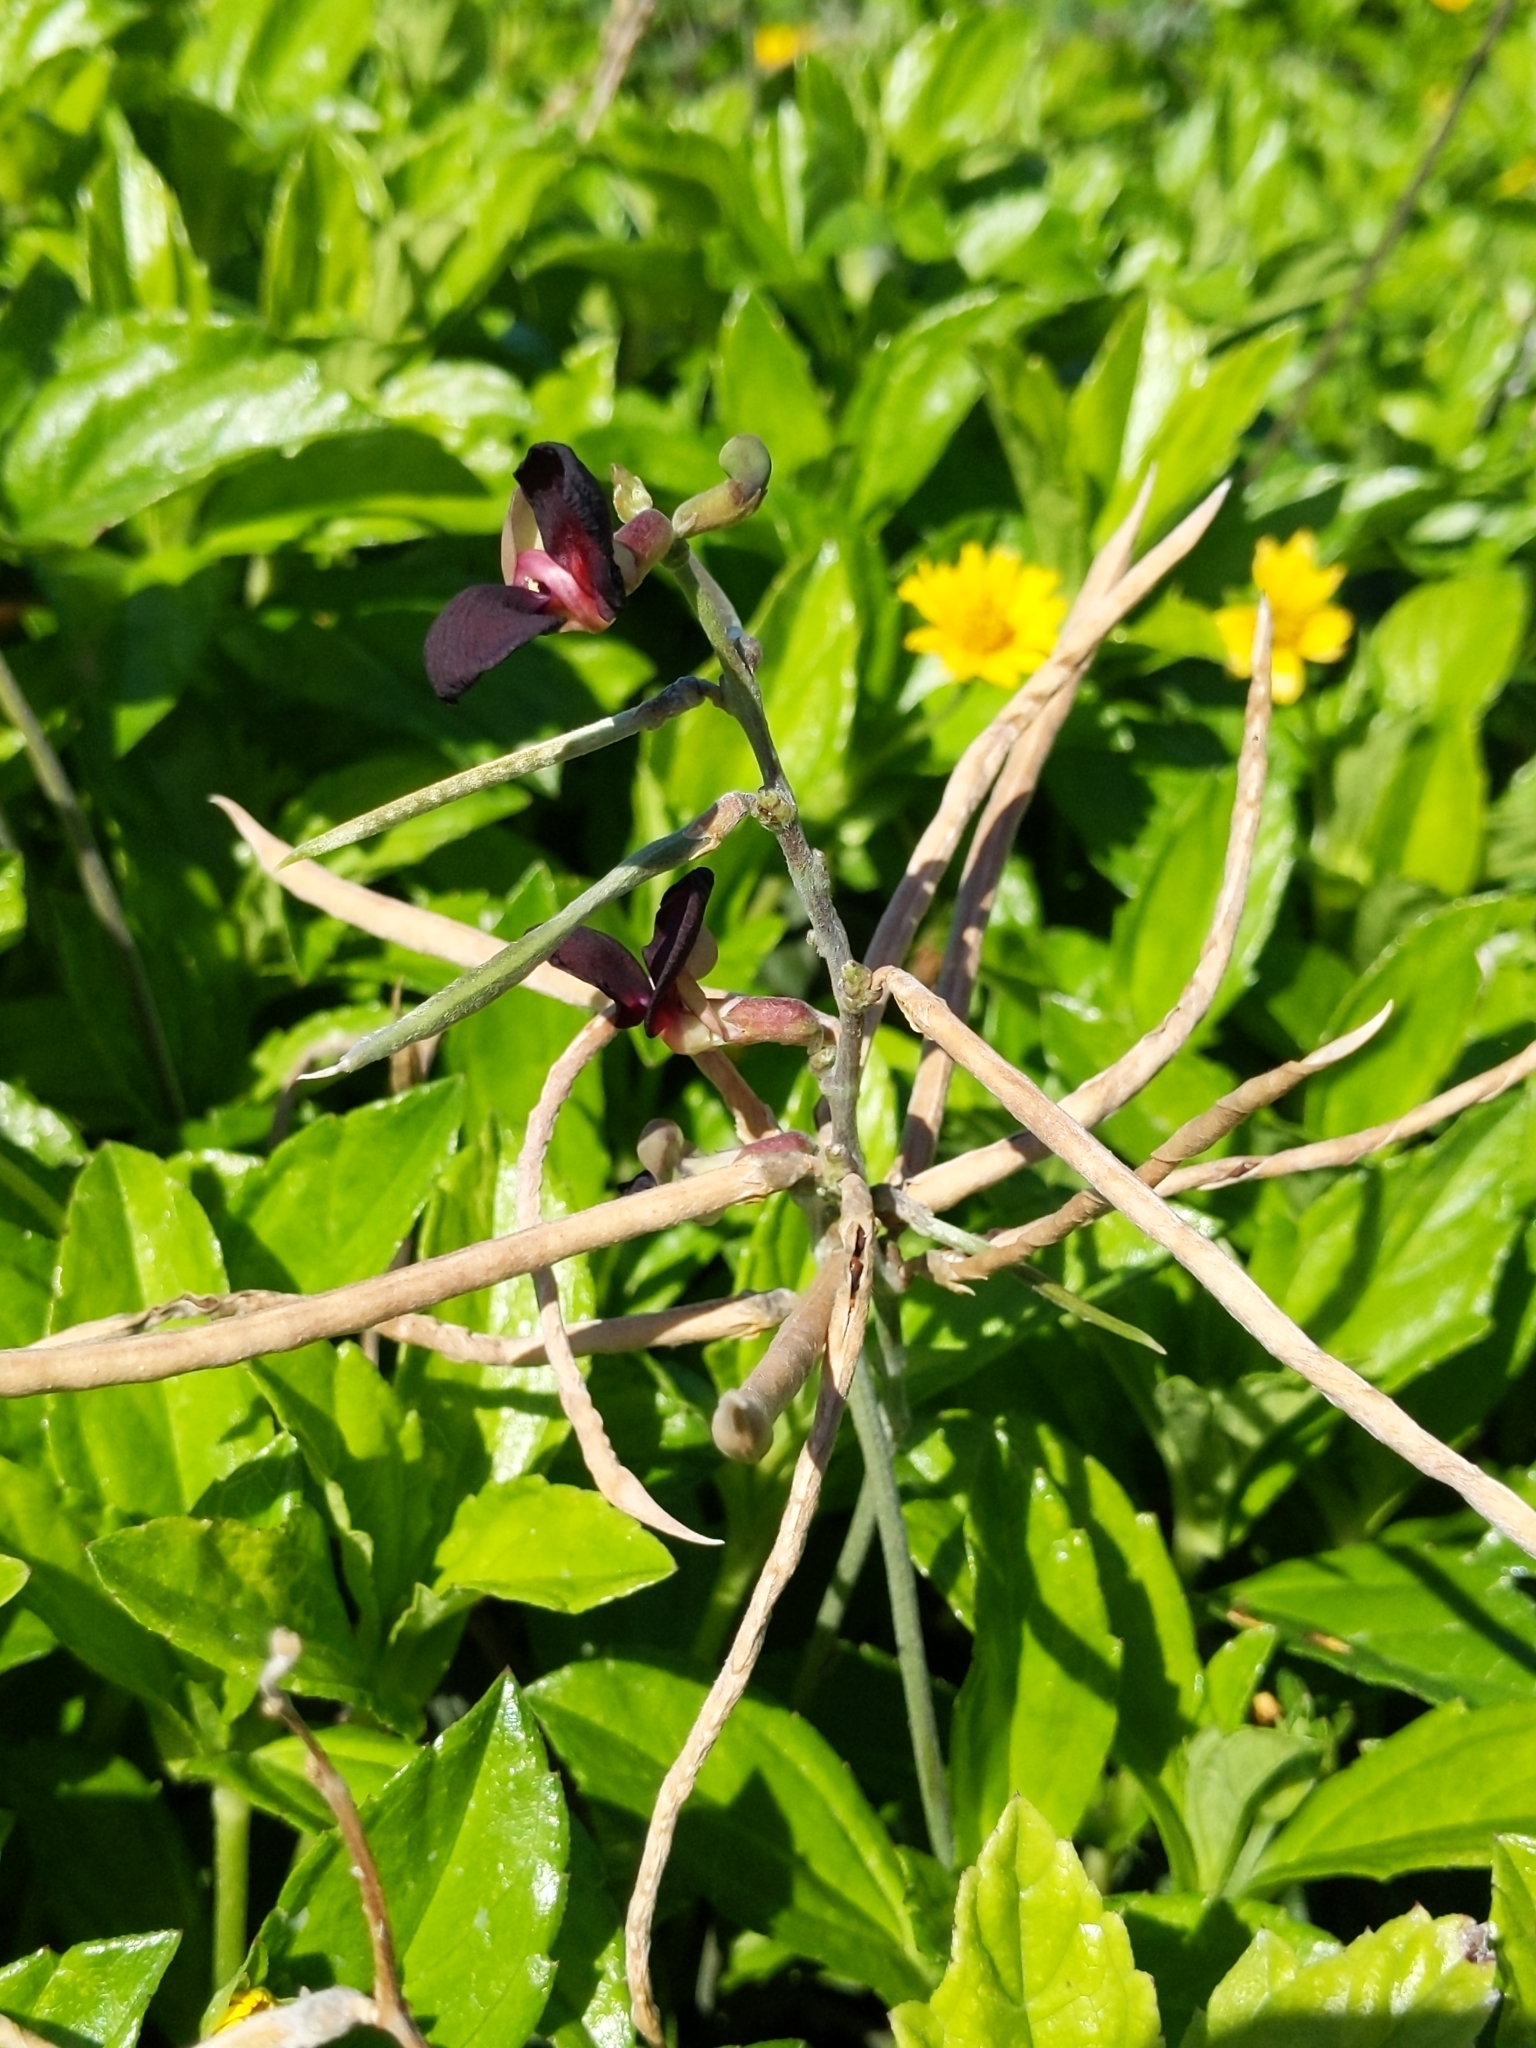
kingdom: Plantae
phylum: Tracheophyta
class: Magnoliopsida
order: Fabales
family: Fabaceae
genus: Macroptilium
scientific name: Macroptilium atropurpureum
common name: Purple bushbean
